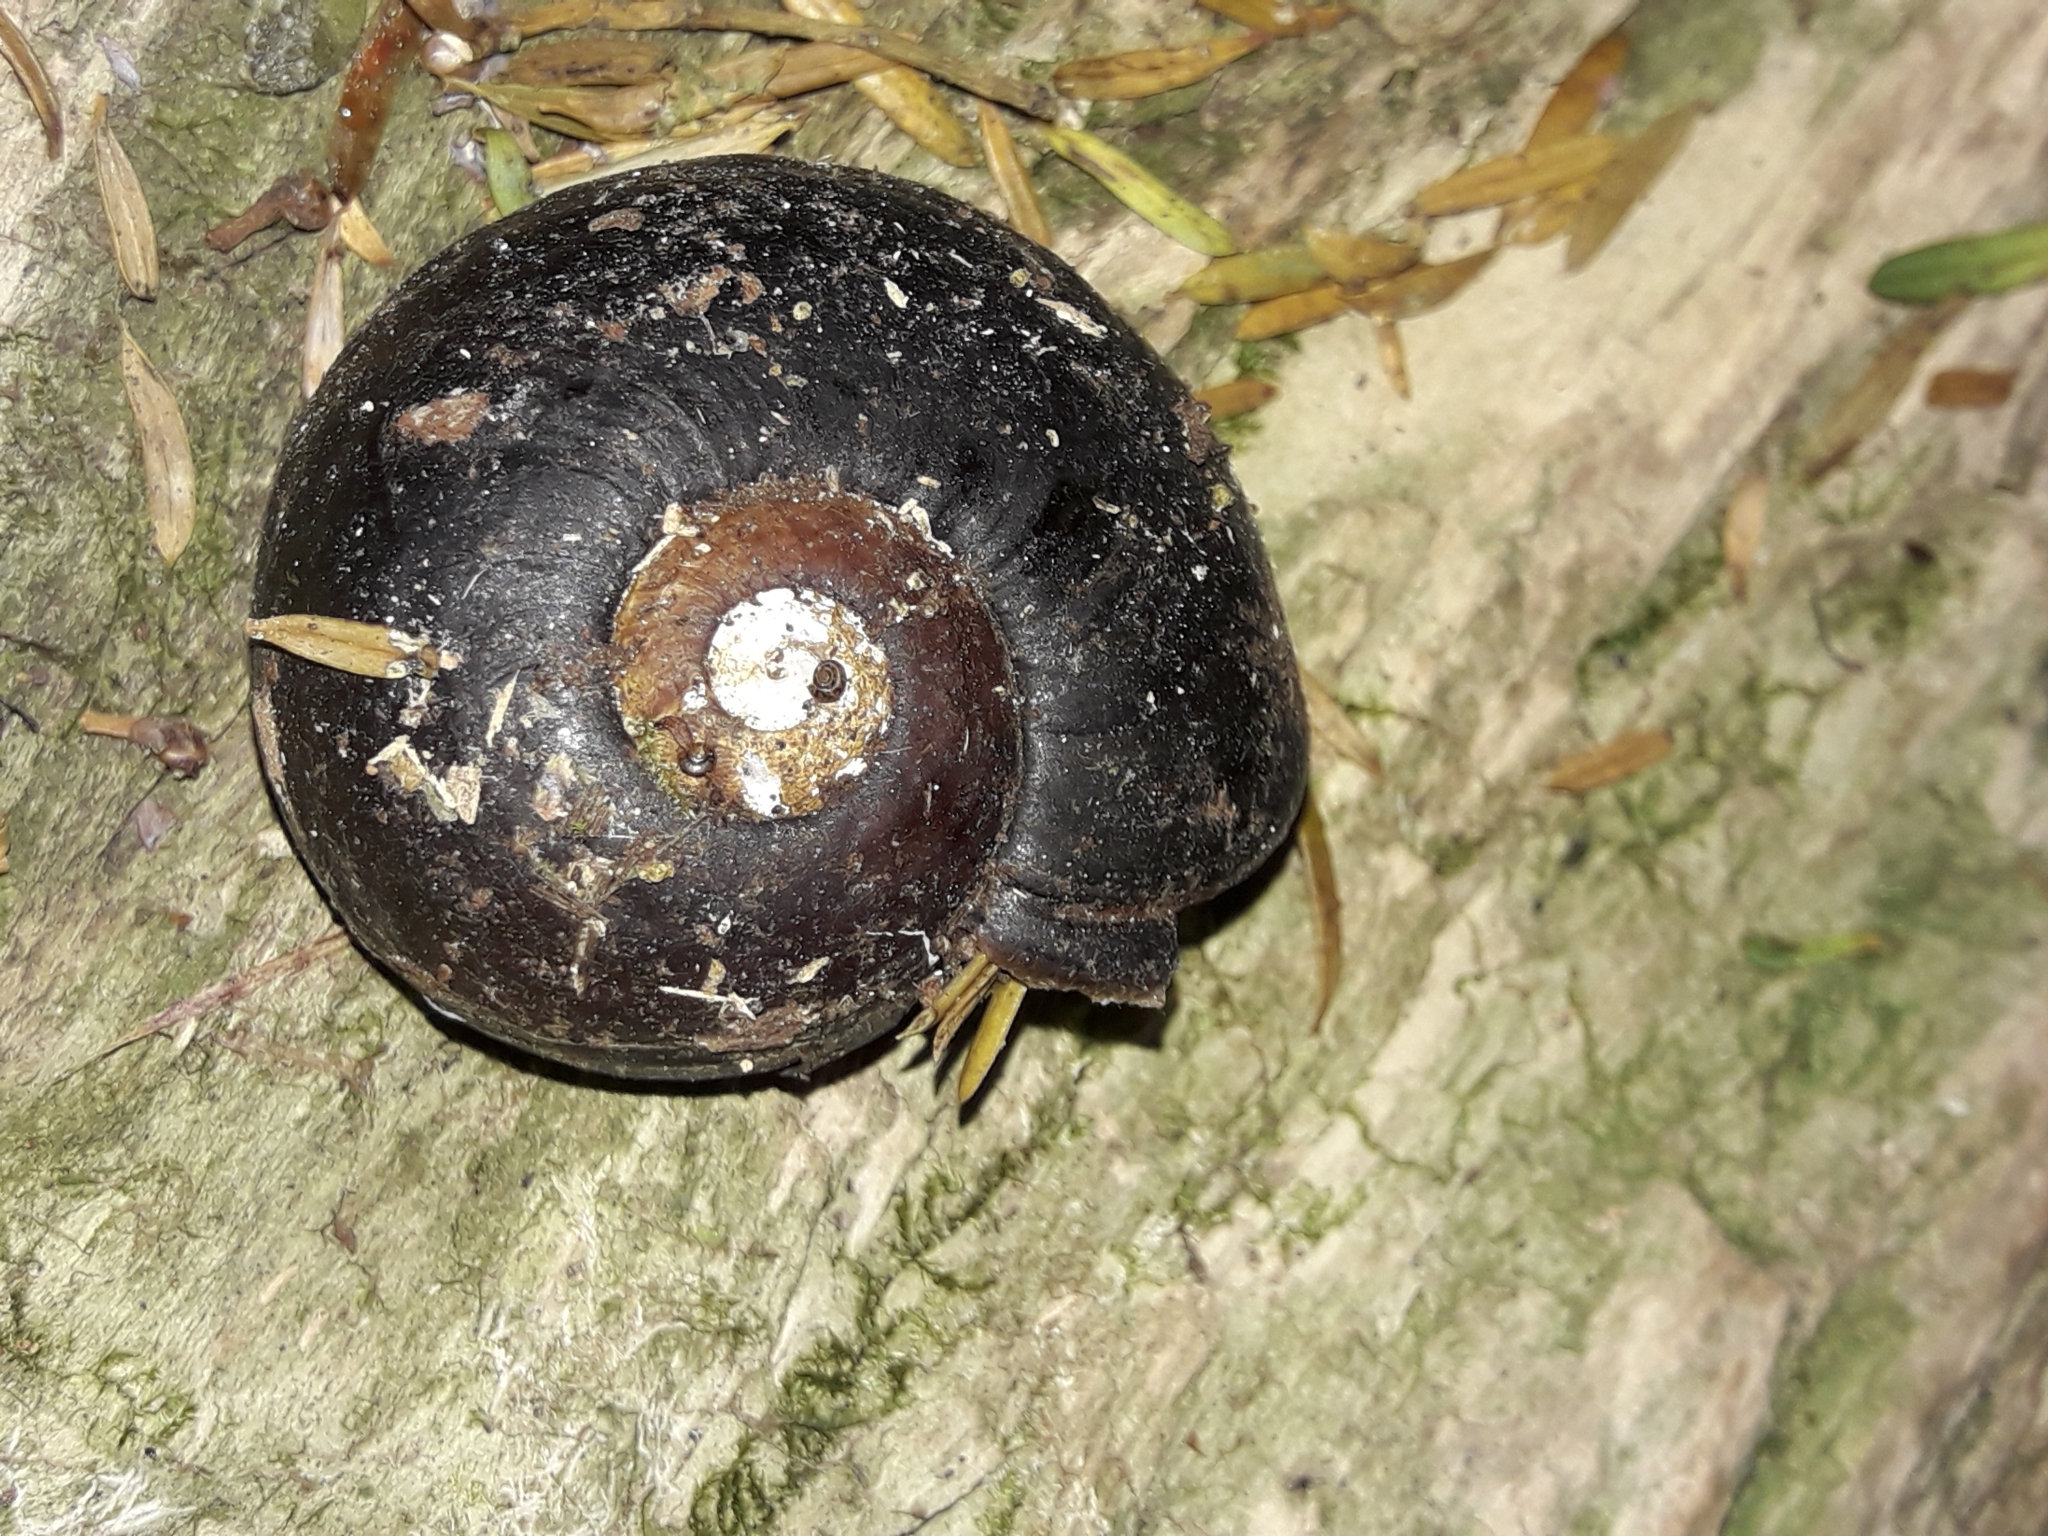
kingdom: Animalia
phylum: Mollusca
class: Gastropoda
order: Stylommatophora
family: Rhytididae
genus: Paryphanta
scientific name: Paryphanta busbyi
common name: Kauri snail
